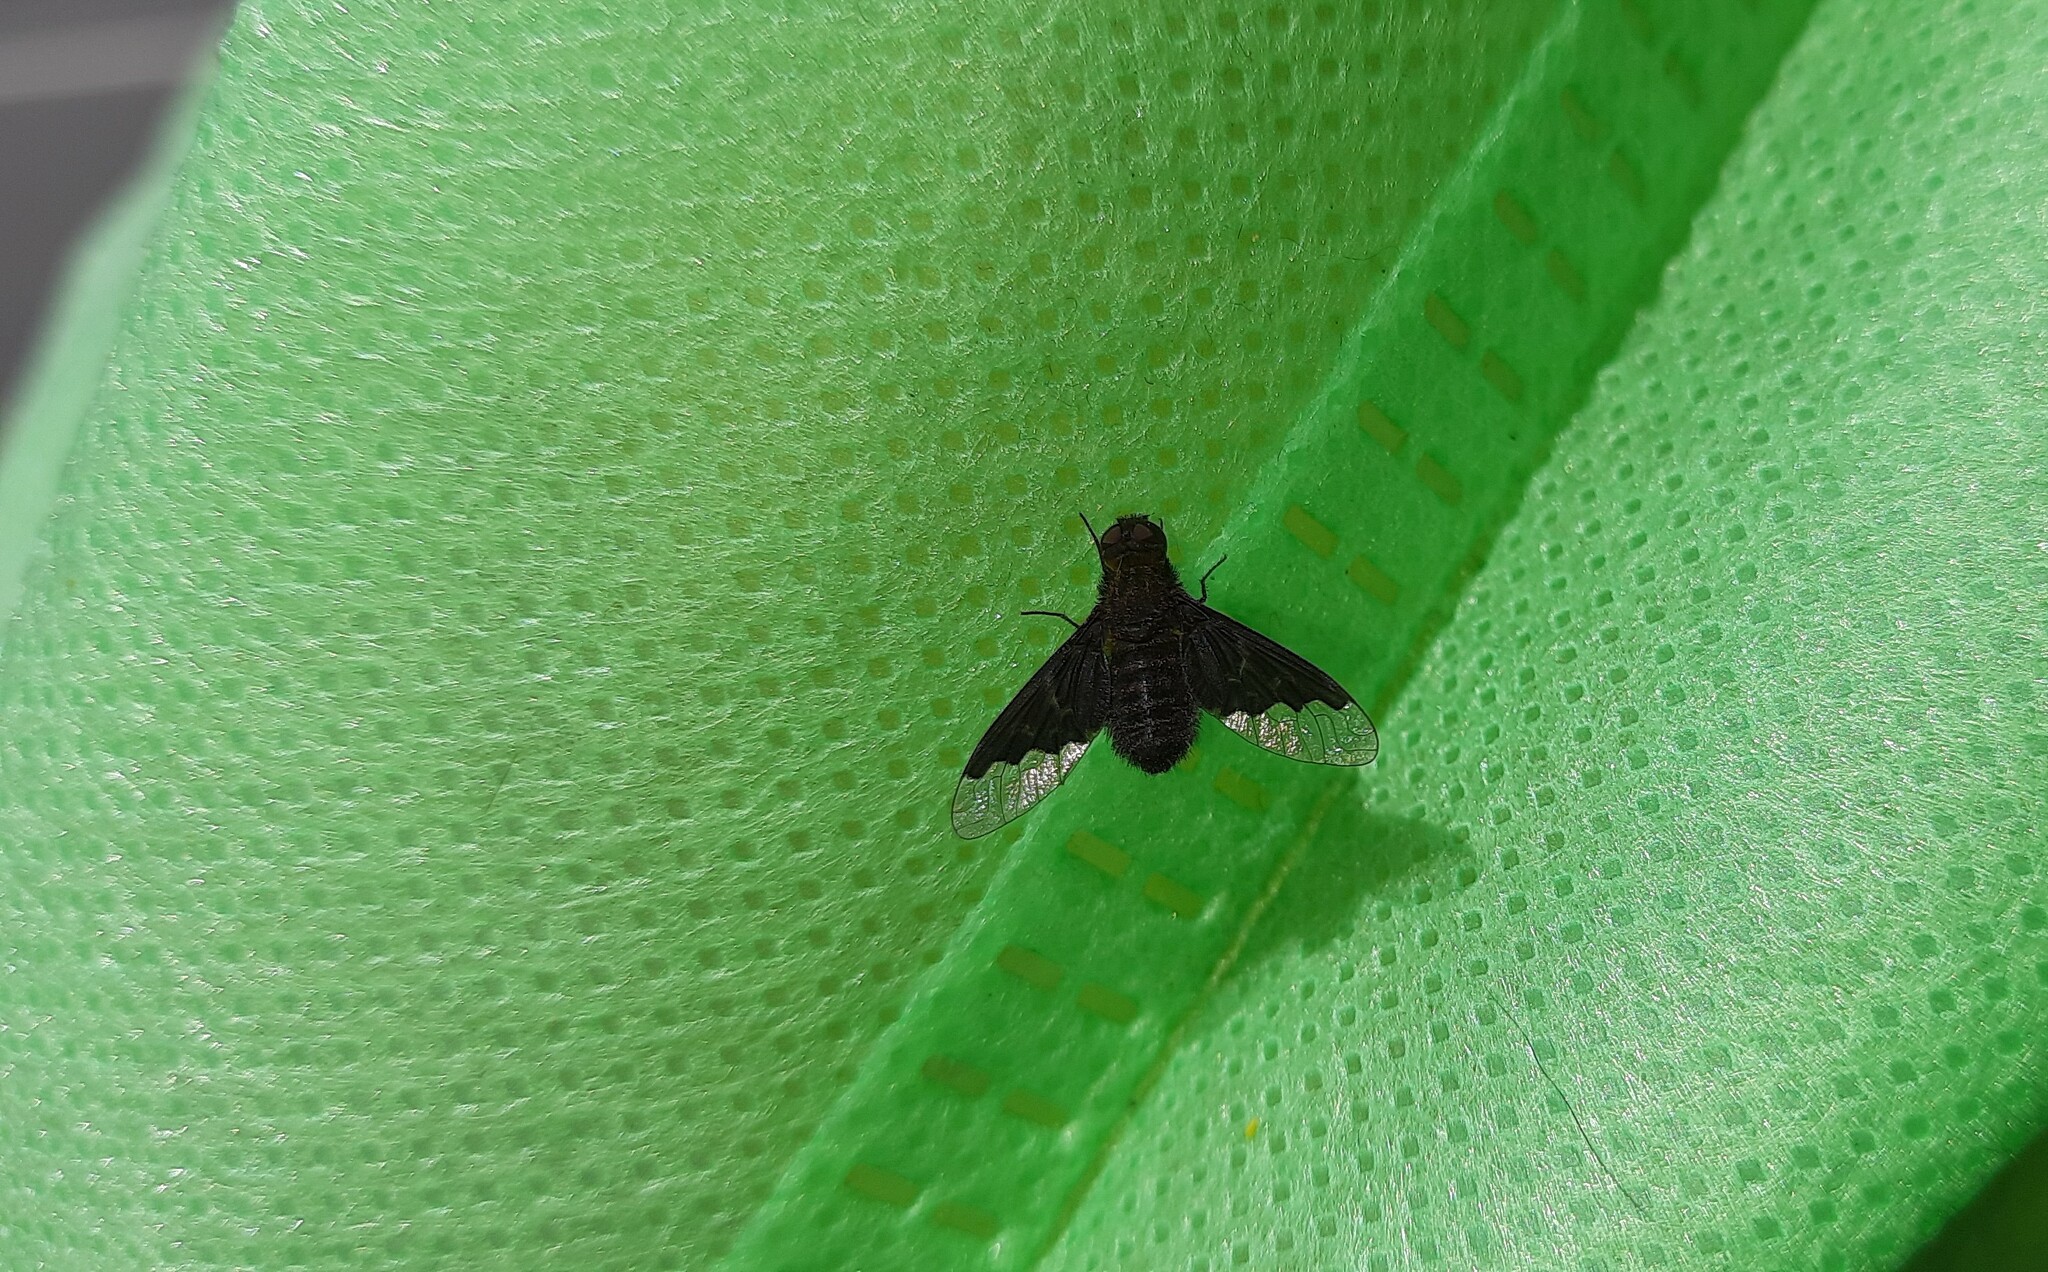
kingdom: Animalia
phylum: Arthropoda
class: Insecta
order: Diptera
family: Bombyliidae
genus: Hemipenthes
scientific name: Hemipenthes morio
